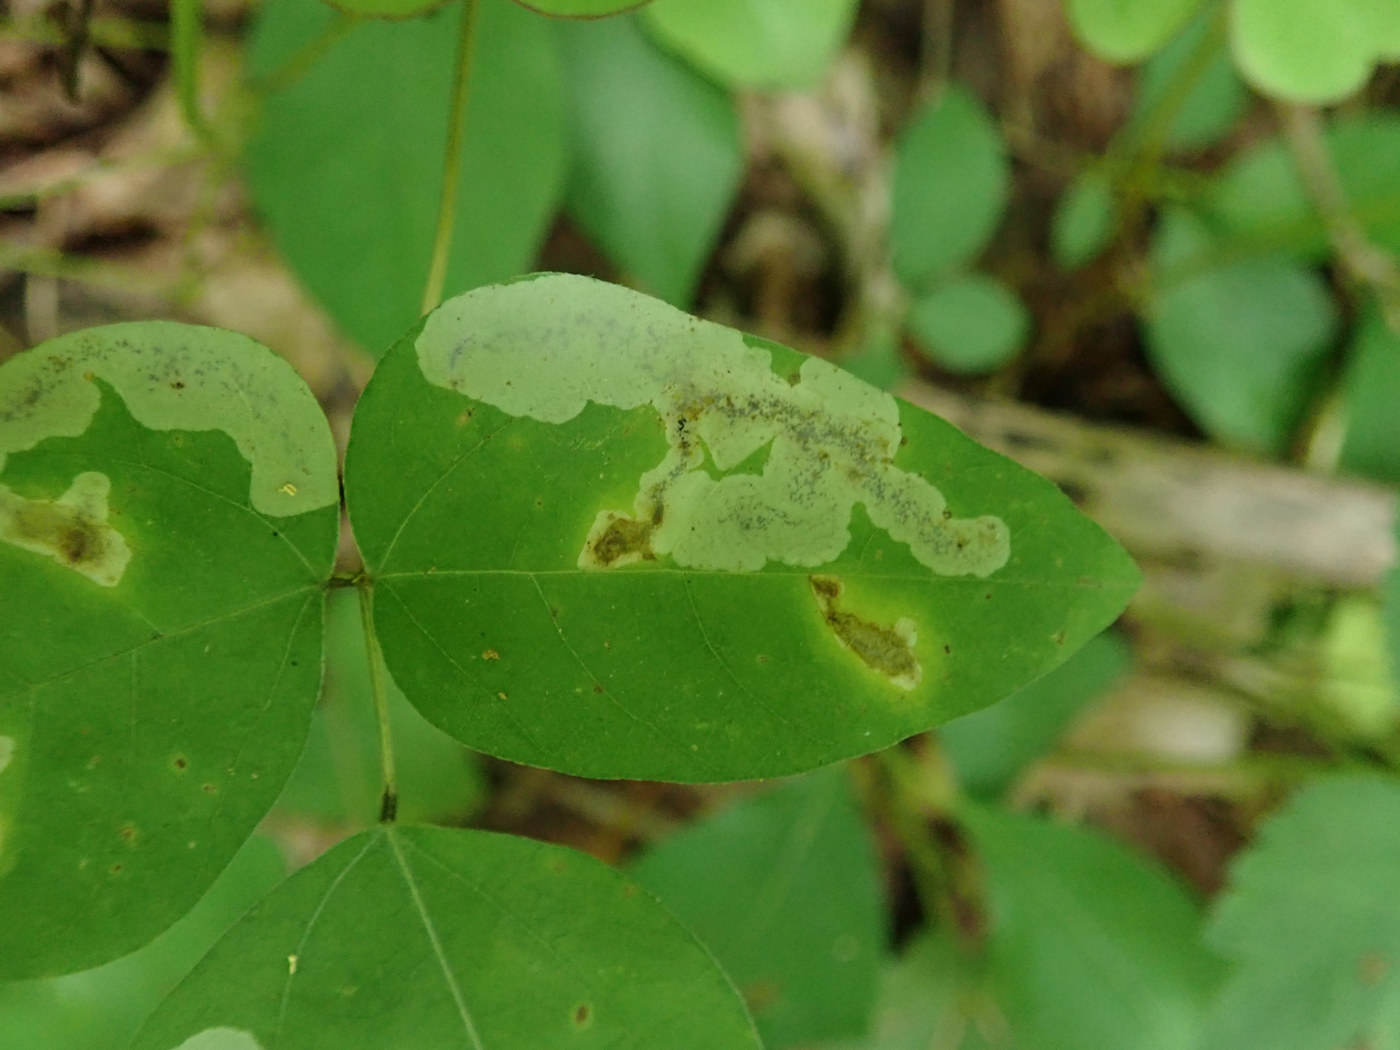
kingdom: Animalia
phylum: Arthropoda
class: Insecta
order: Lepidoptera
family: Gracillariidae
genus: Leucanthiza
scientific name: Leucanthiza amphicarpeaefoliella
